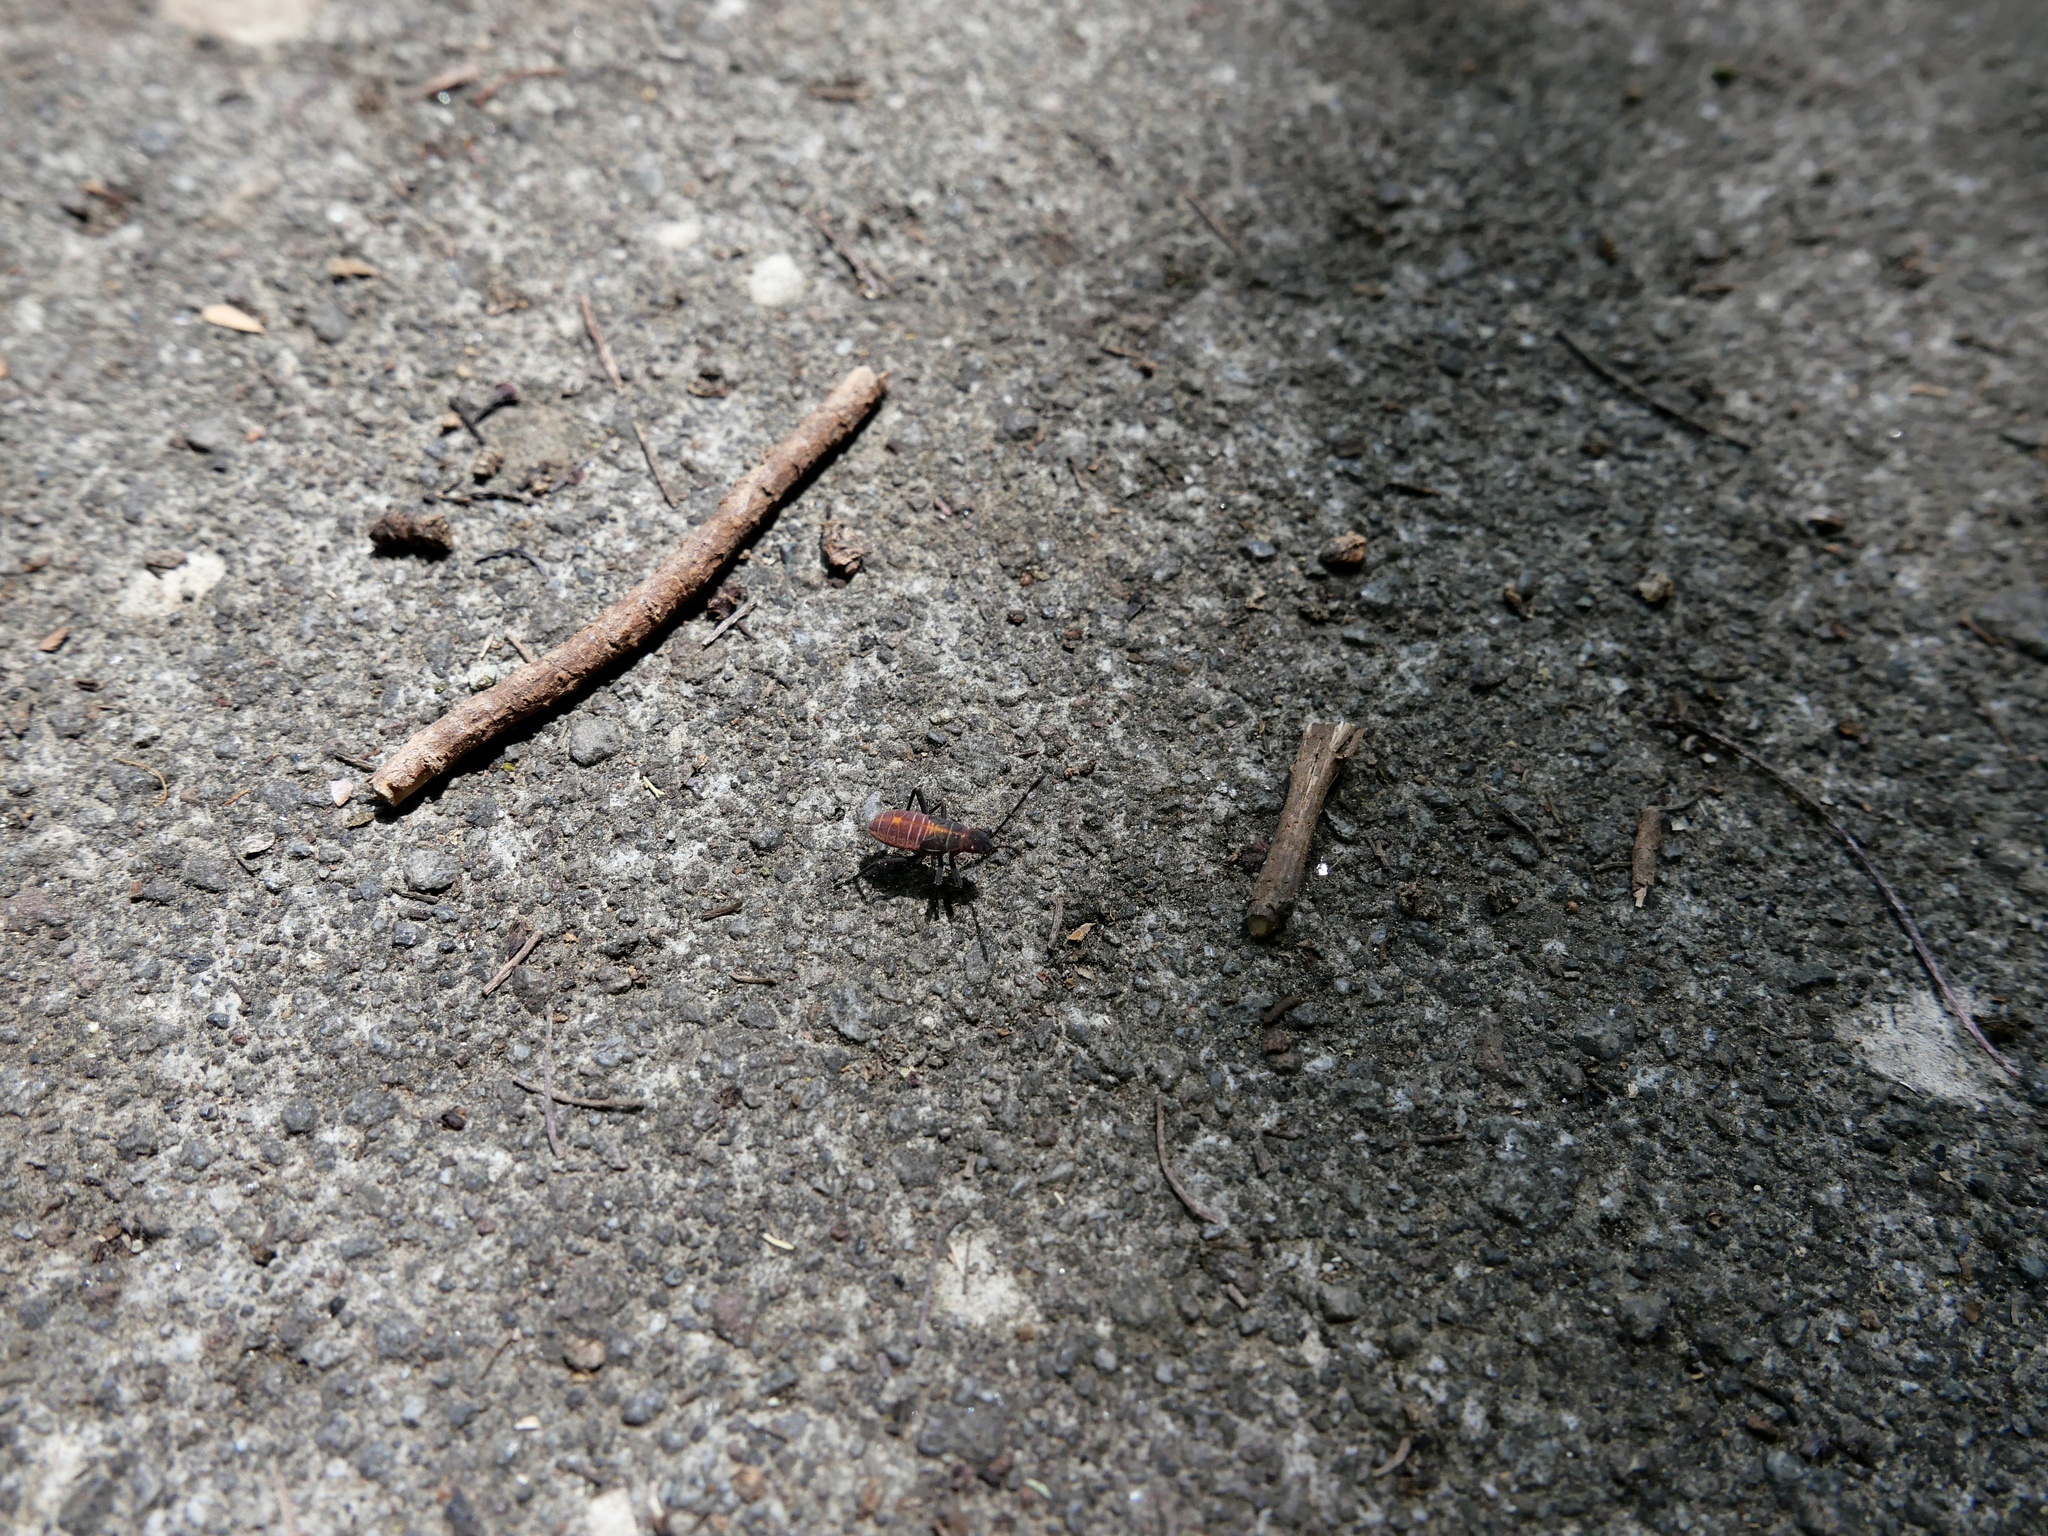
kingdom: Animalia
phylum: Arthropoda
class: Insecta
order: Hemiptera
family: Rhopalidae
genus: Boisea
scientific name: Boisea rubrolineata
